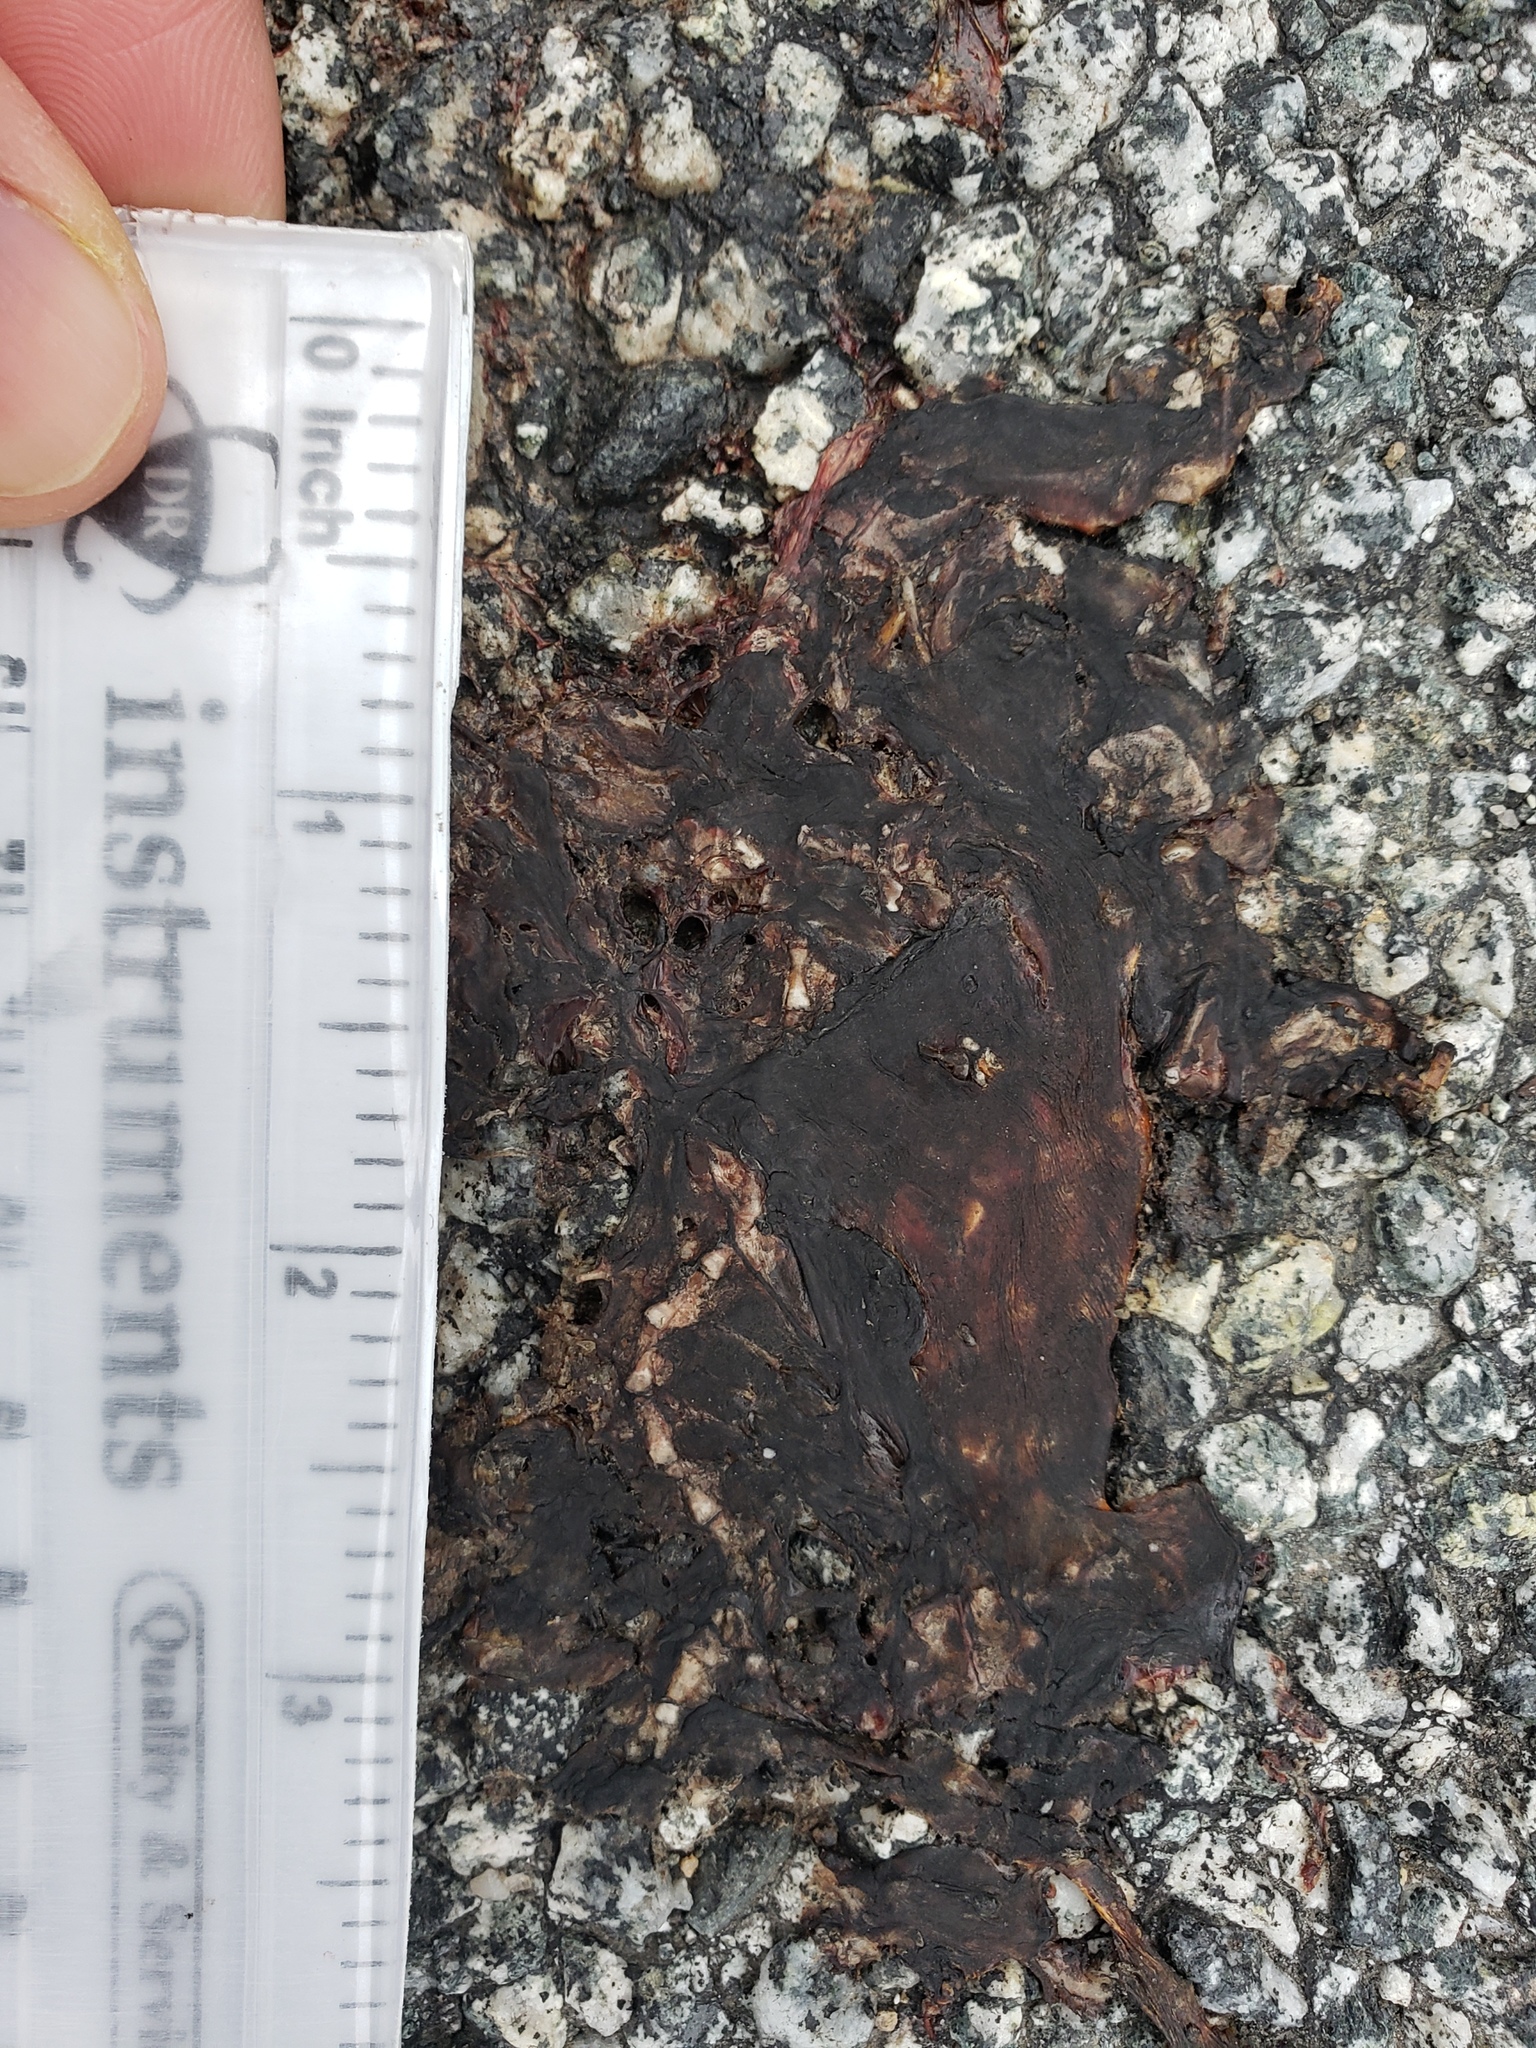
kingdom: Animalia
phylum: Chordata
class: Amphibia
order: Caudata
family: Salamandridae
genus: Taricha
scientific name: Taricha
